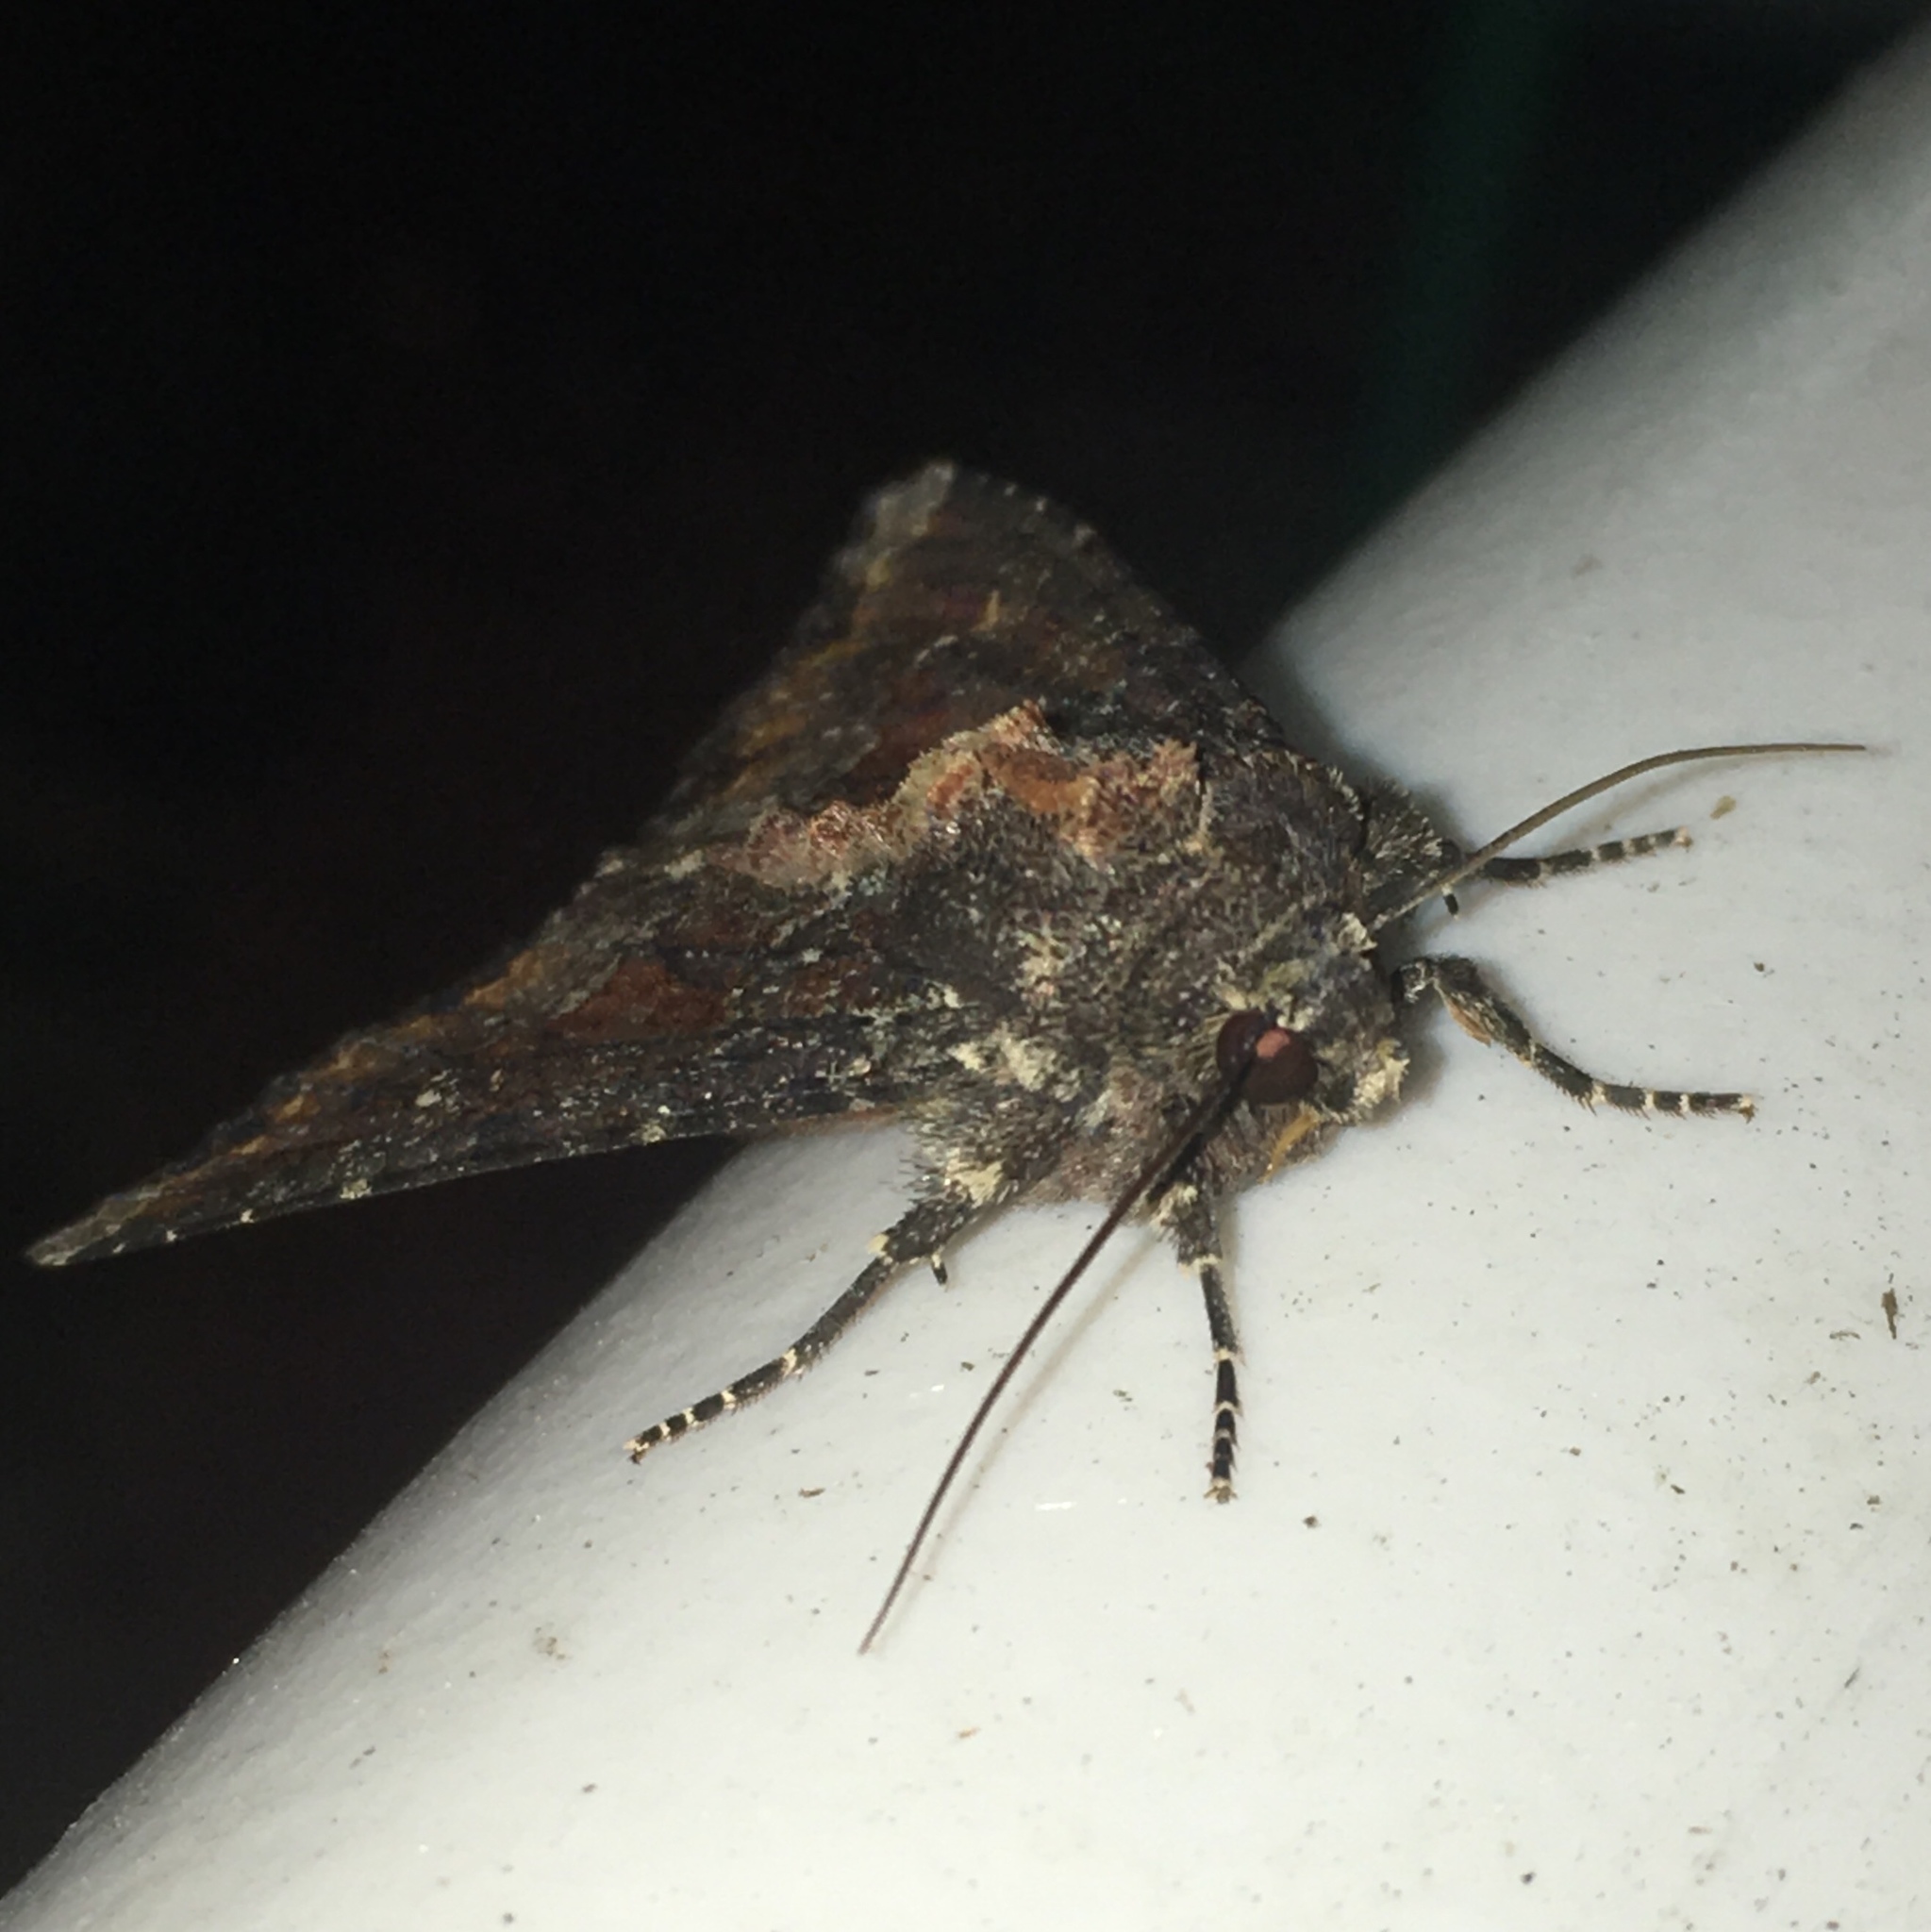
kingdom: Animalia
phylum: Arthropoda
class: Insecta
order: Lepidoptera
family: Noctuidae
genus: Apamea
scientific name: Apamea amputatrix
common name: Yellow-headed cutworm moth
